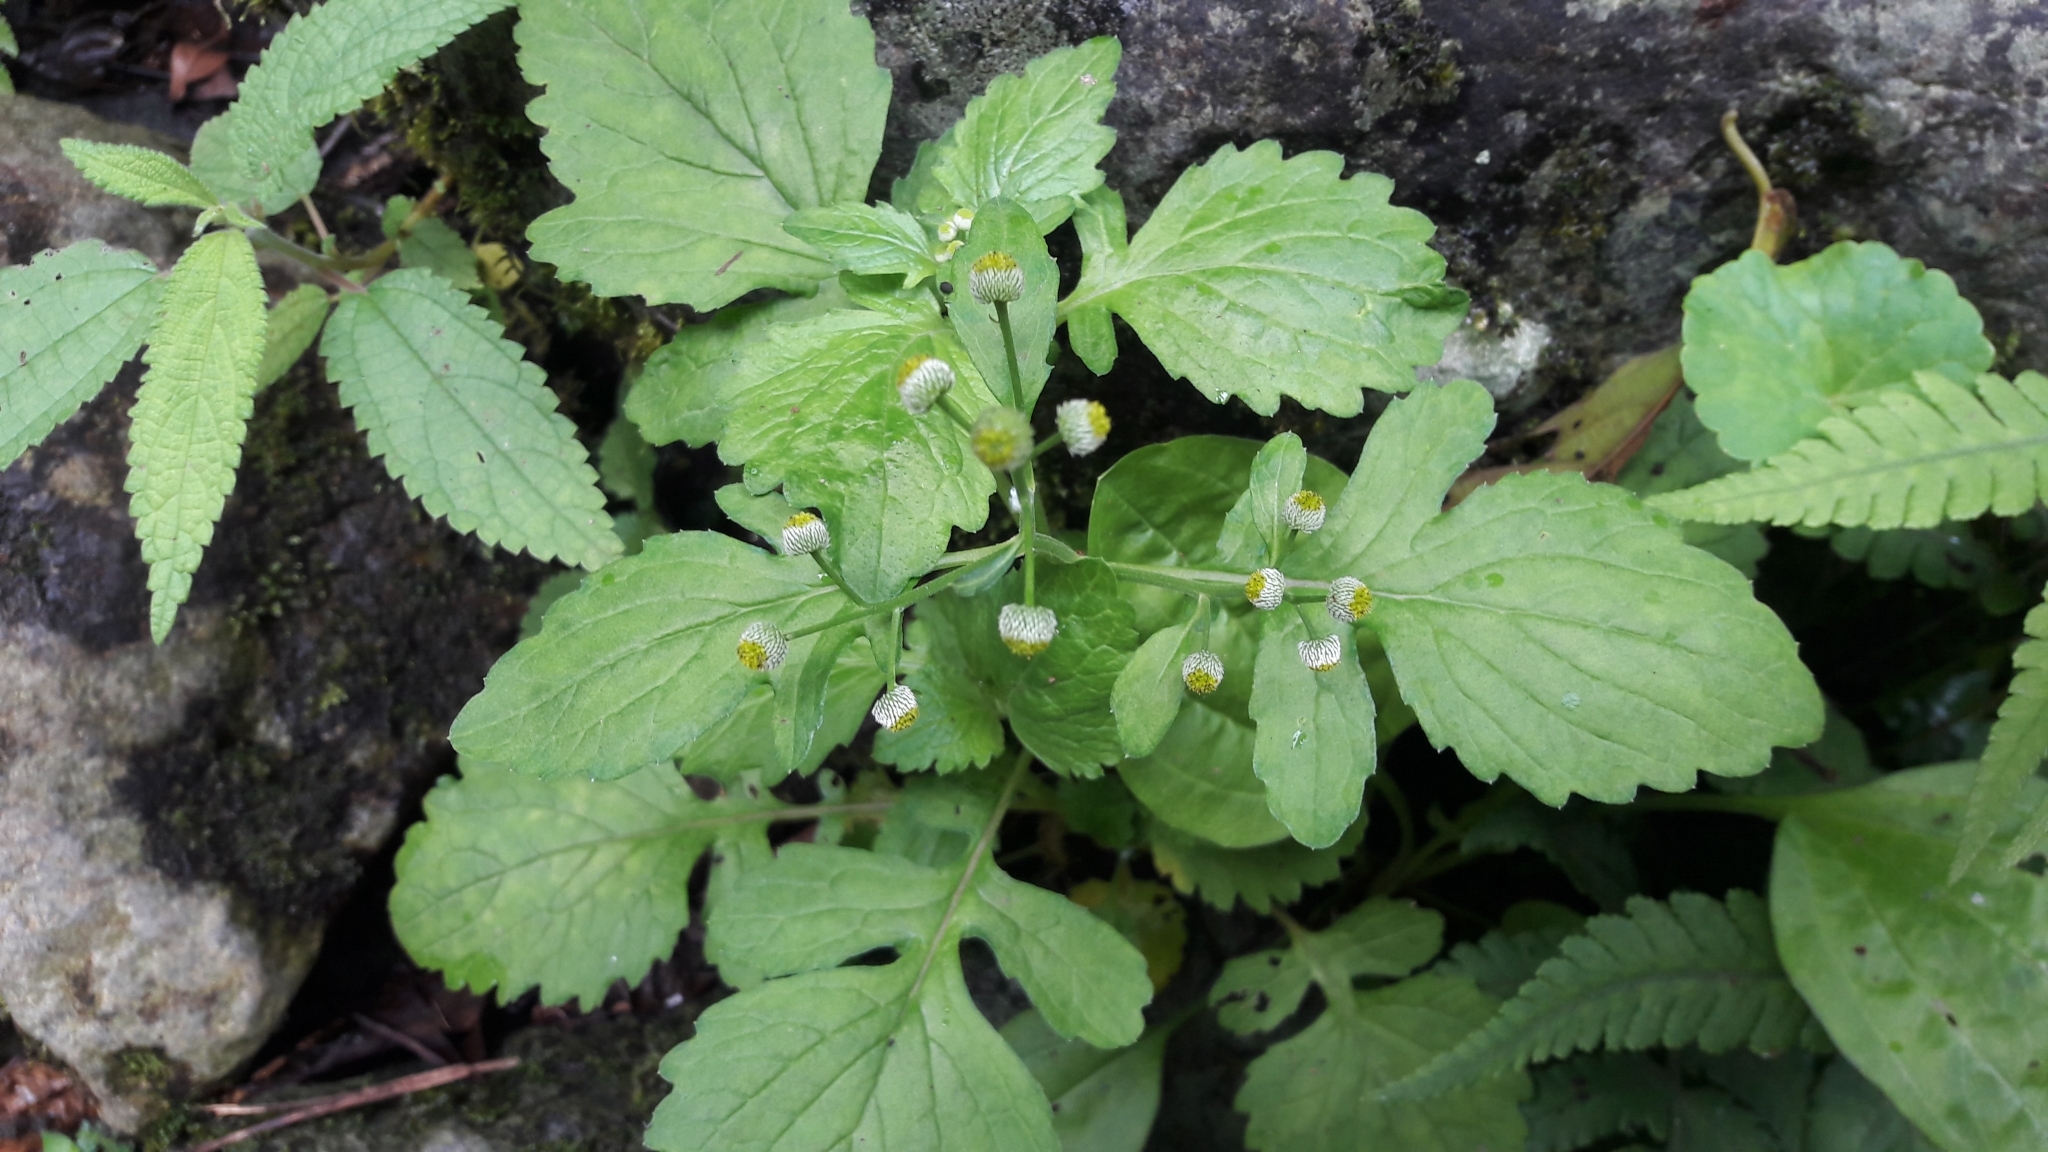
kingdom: Plantae
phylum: Tracheophyta
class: Magnoliopsida
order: Asterales
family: Asteraceae
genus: Dichrocephala
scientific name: Dichrocephala integrifolia
